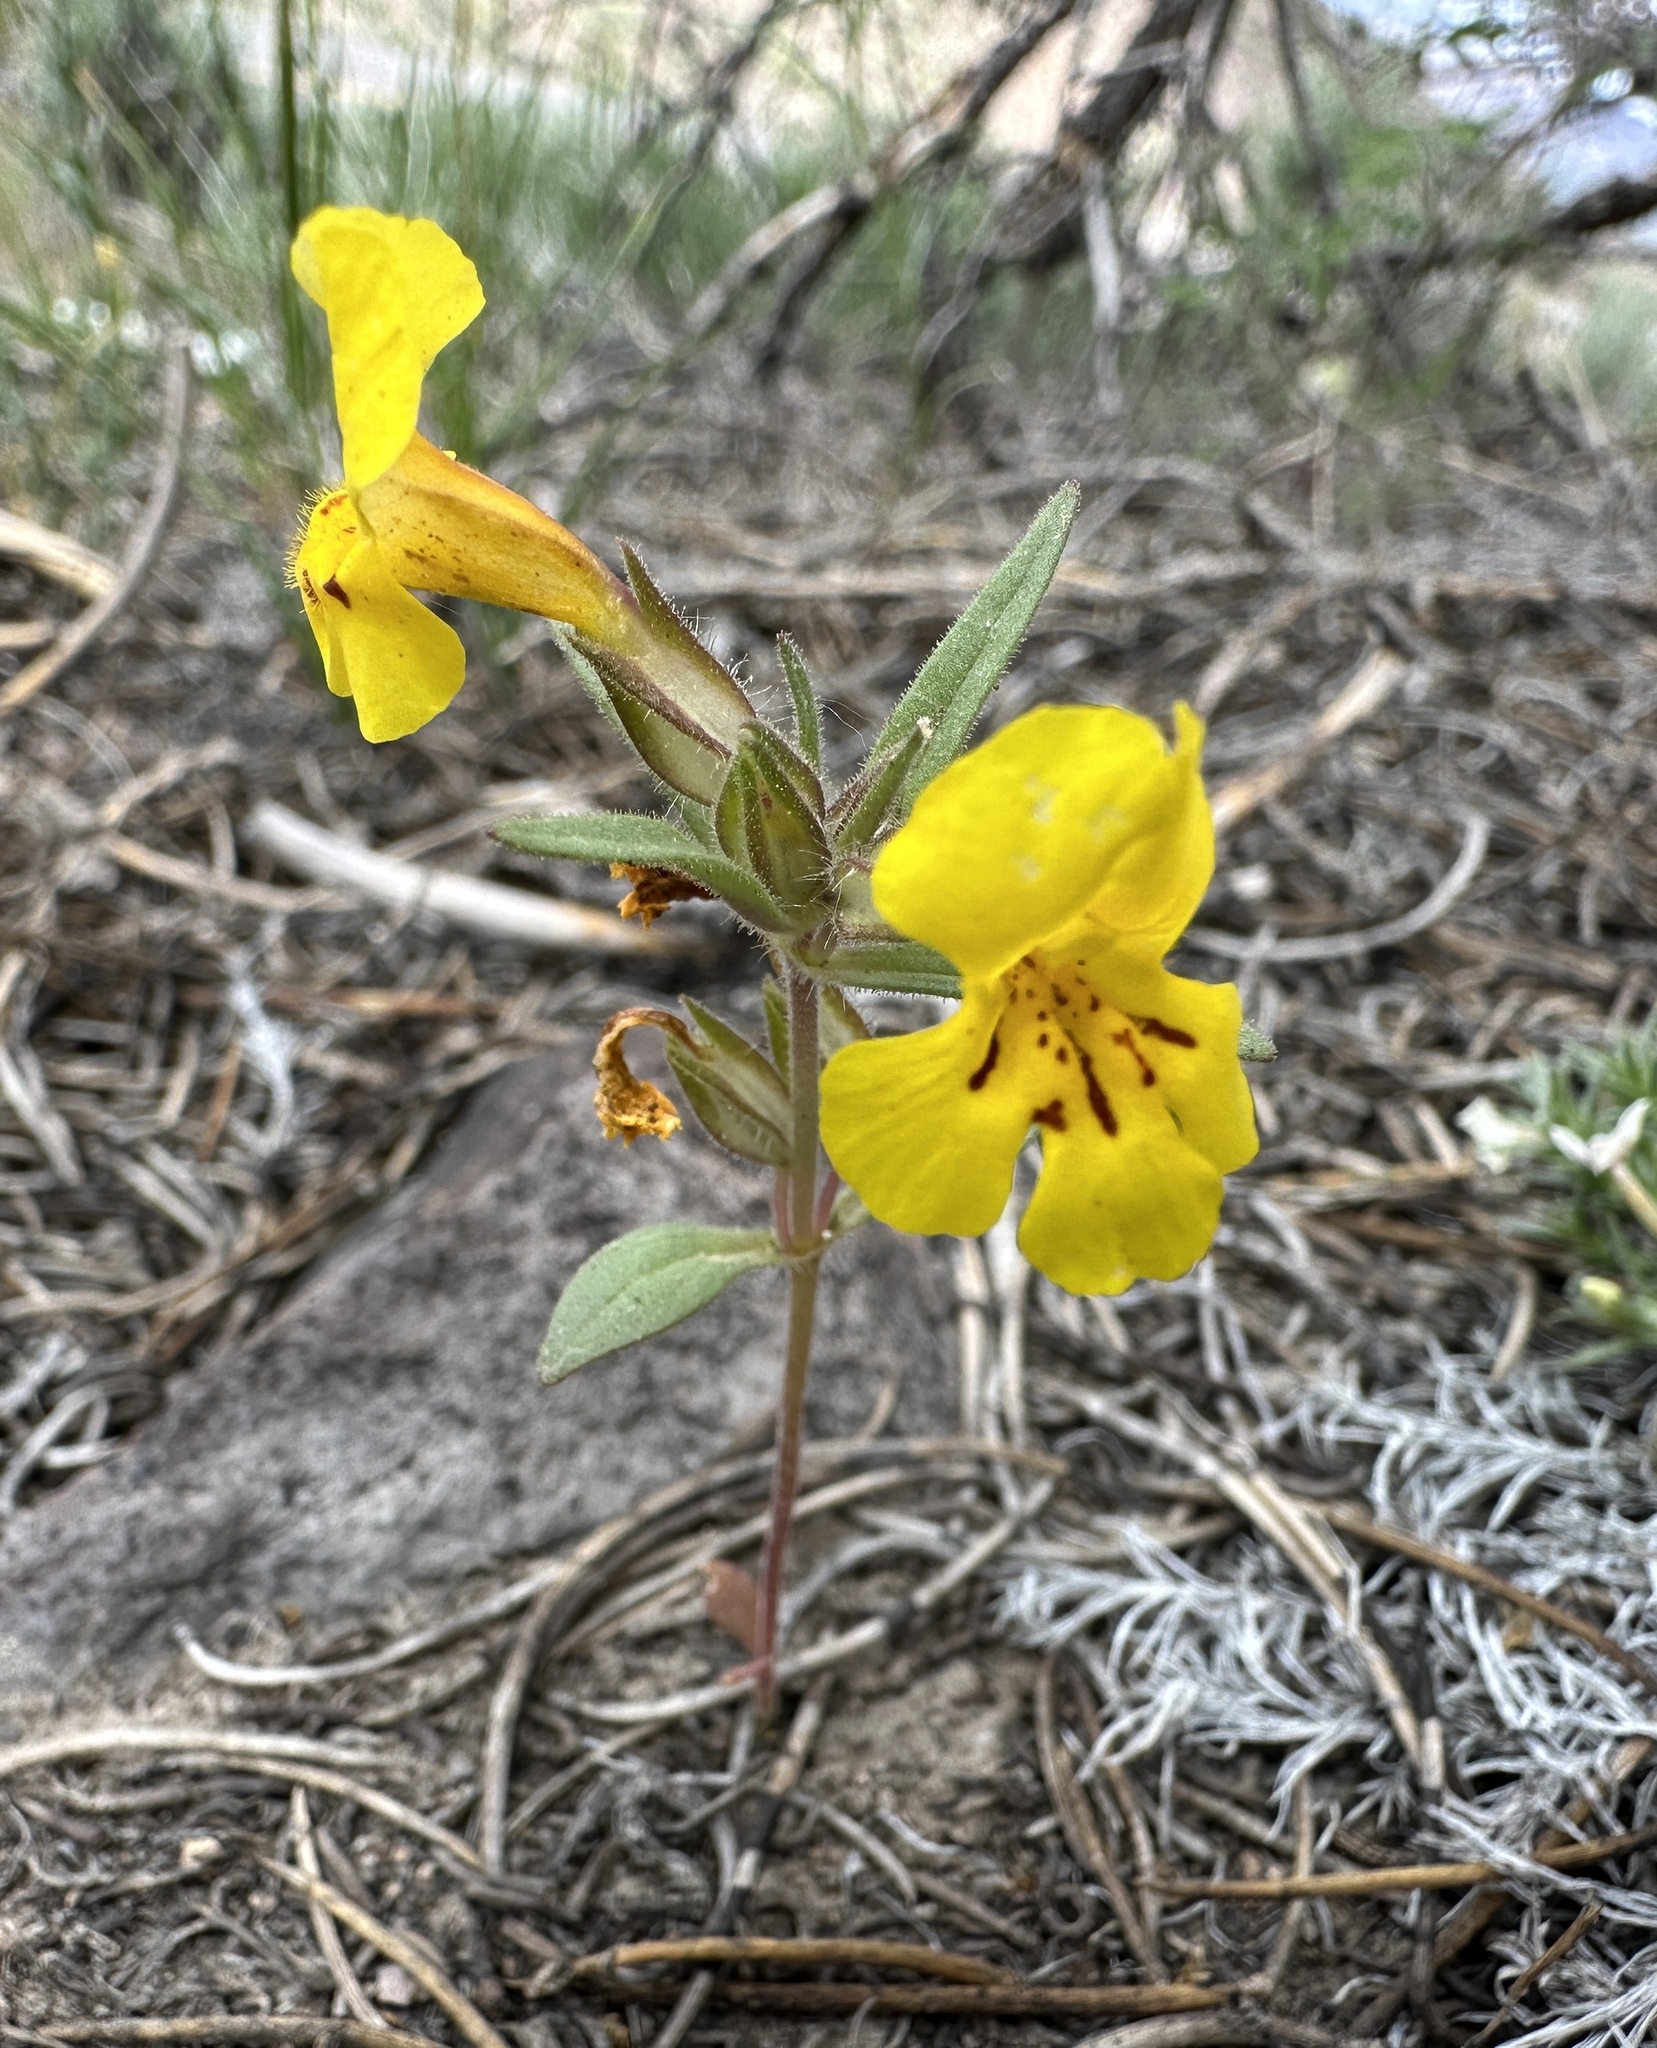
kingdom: Plantae
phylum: Tracheophyta
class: Magnoliopsida
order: Lamiales
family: Phrymaceae
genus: Diplacus
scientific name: Diplacus mephiticus
